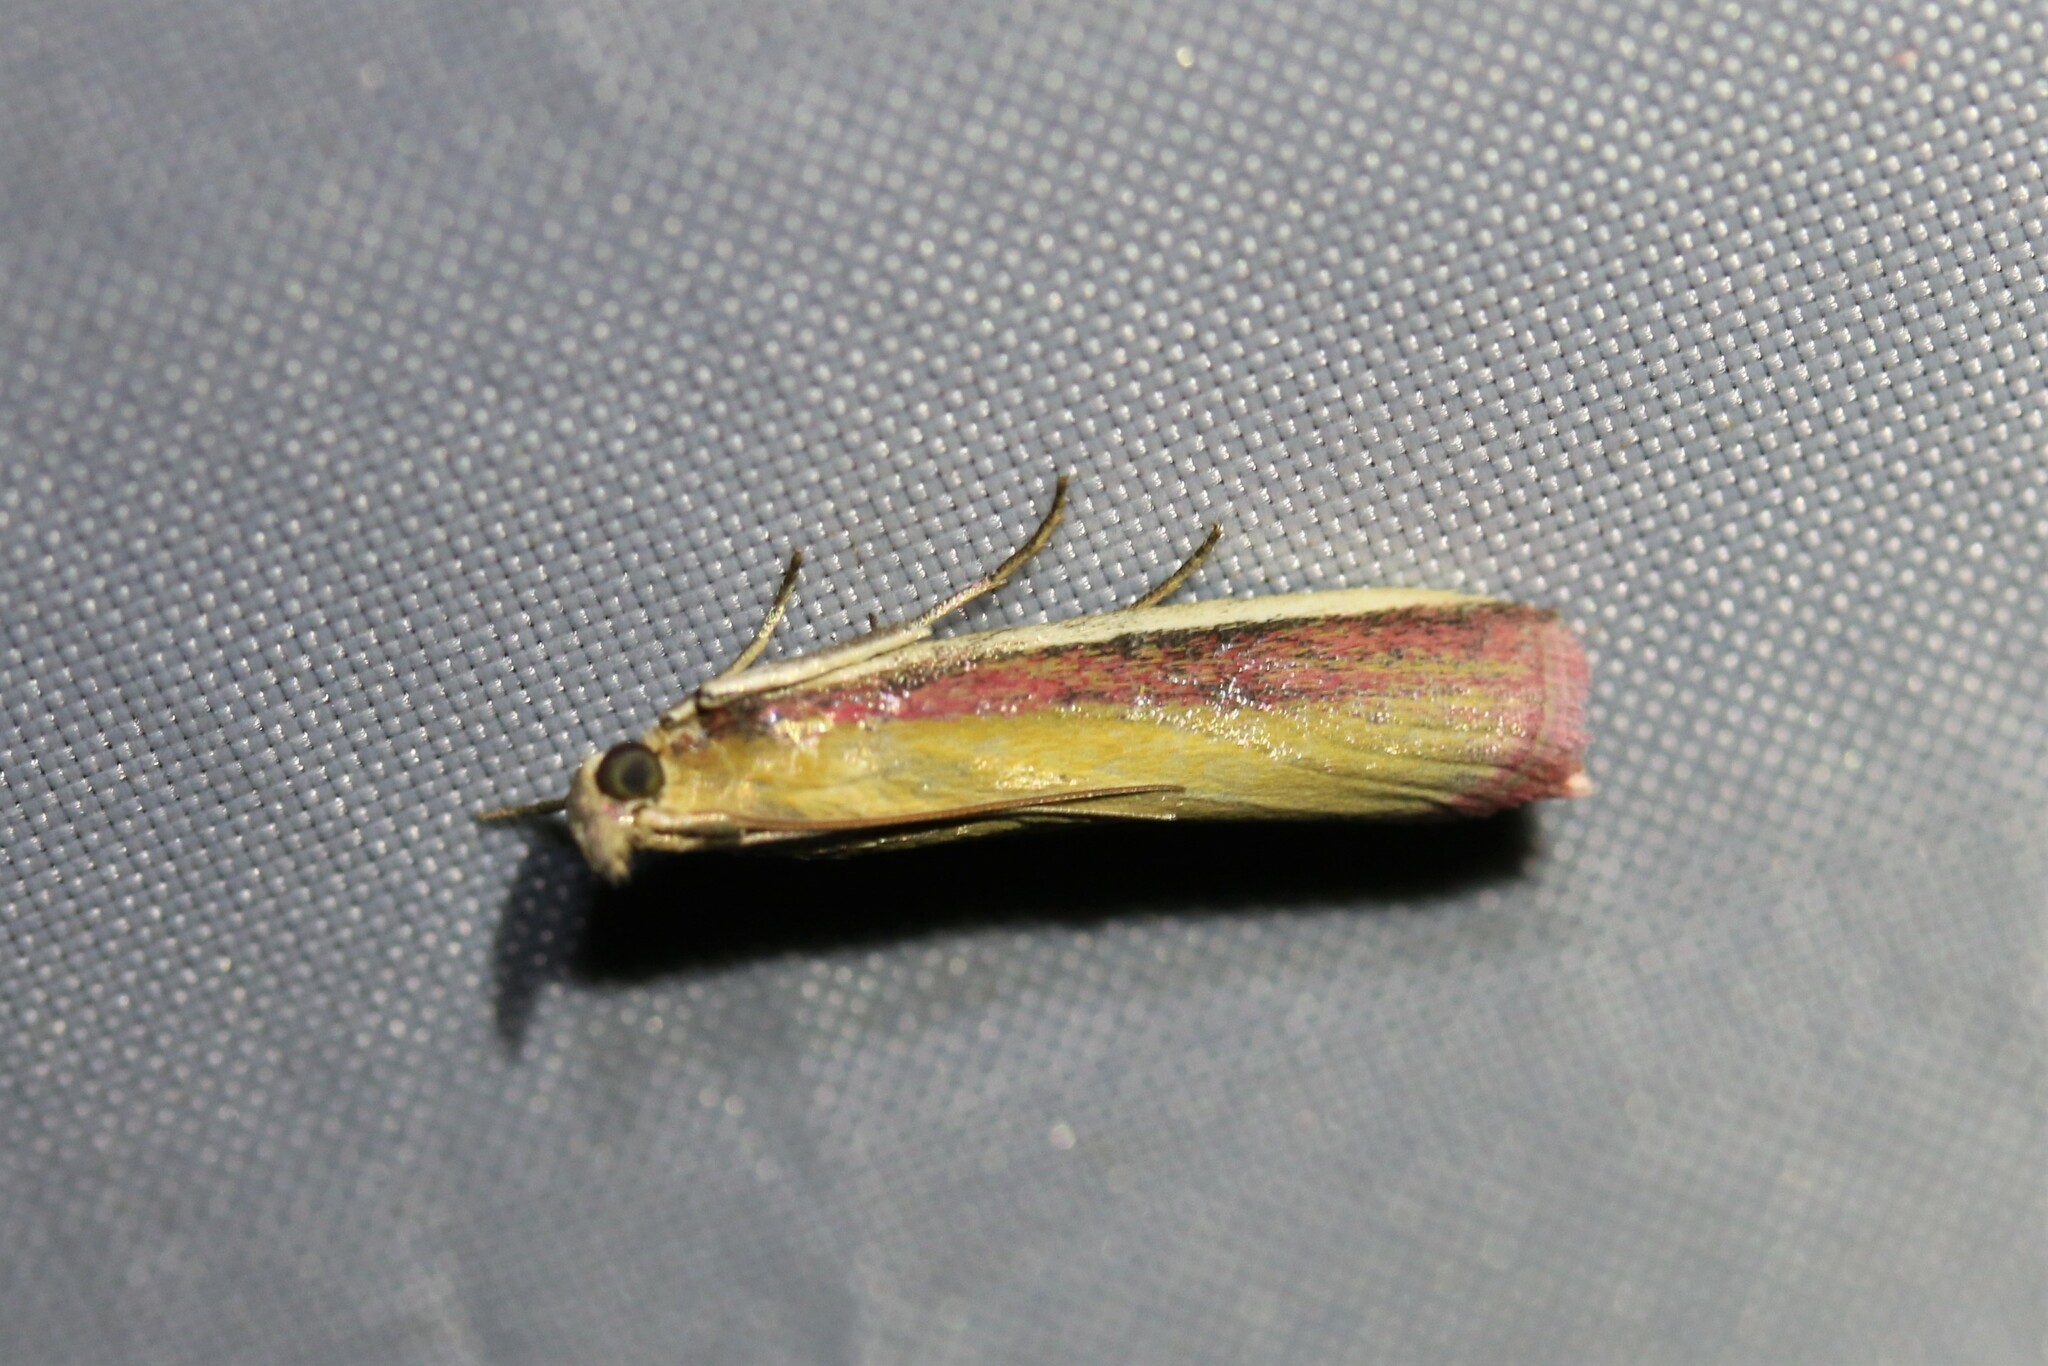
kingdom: Animalia
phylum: Arthropoda
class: Insecta
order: Lepidoptera
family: Pyralidae
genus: Oncocera
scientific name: Oncocera semirubella
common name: Rosy-striped knot-horn
